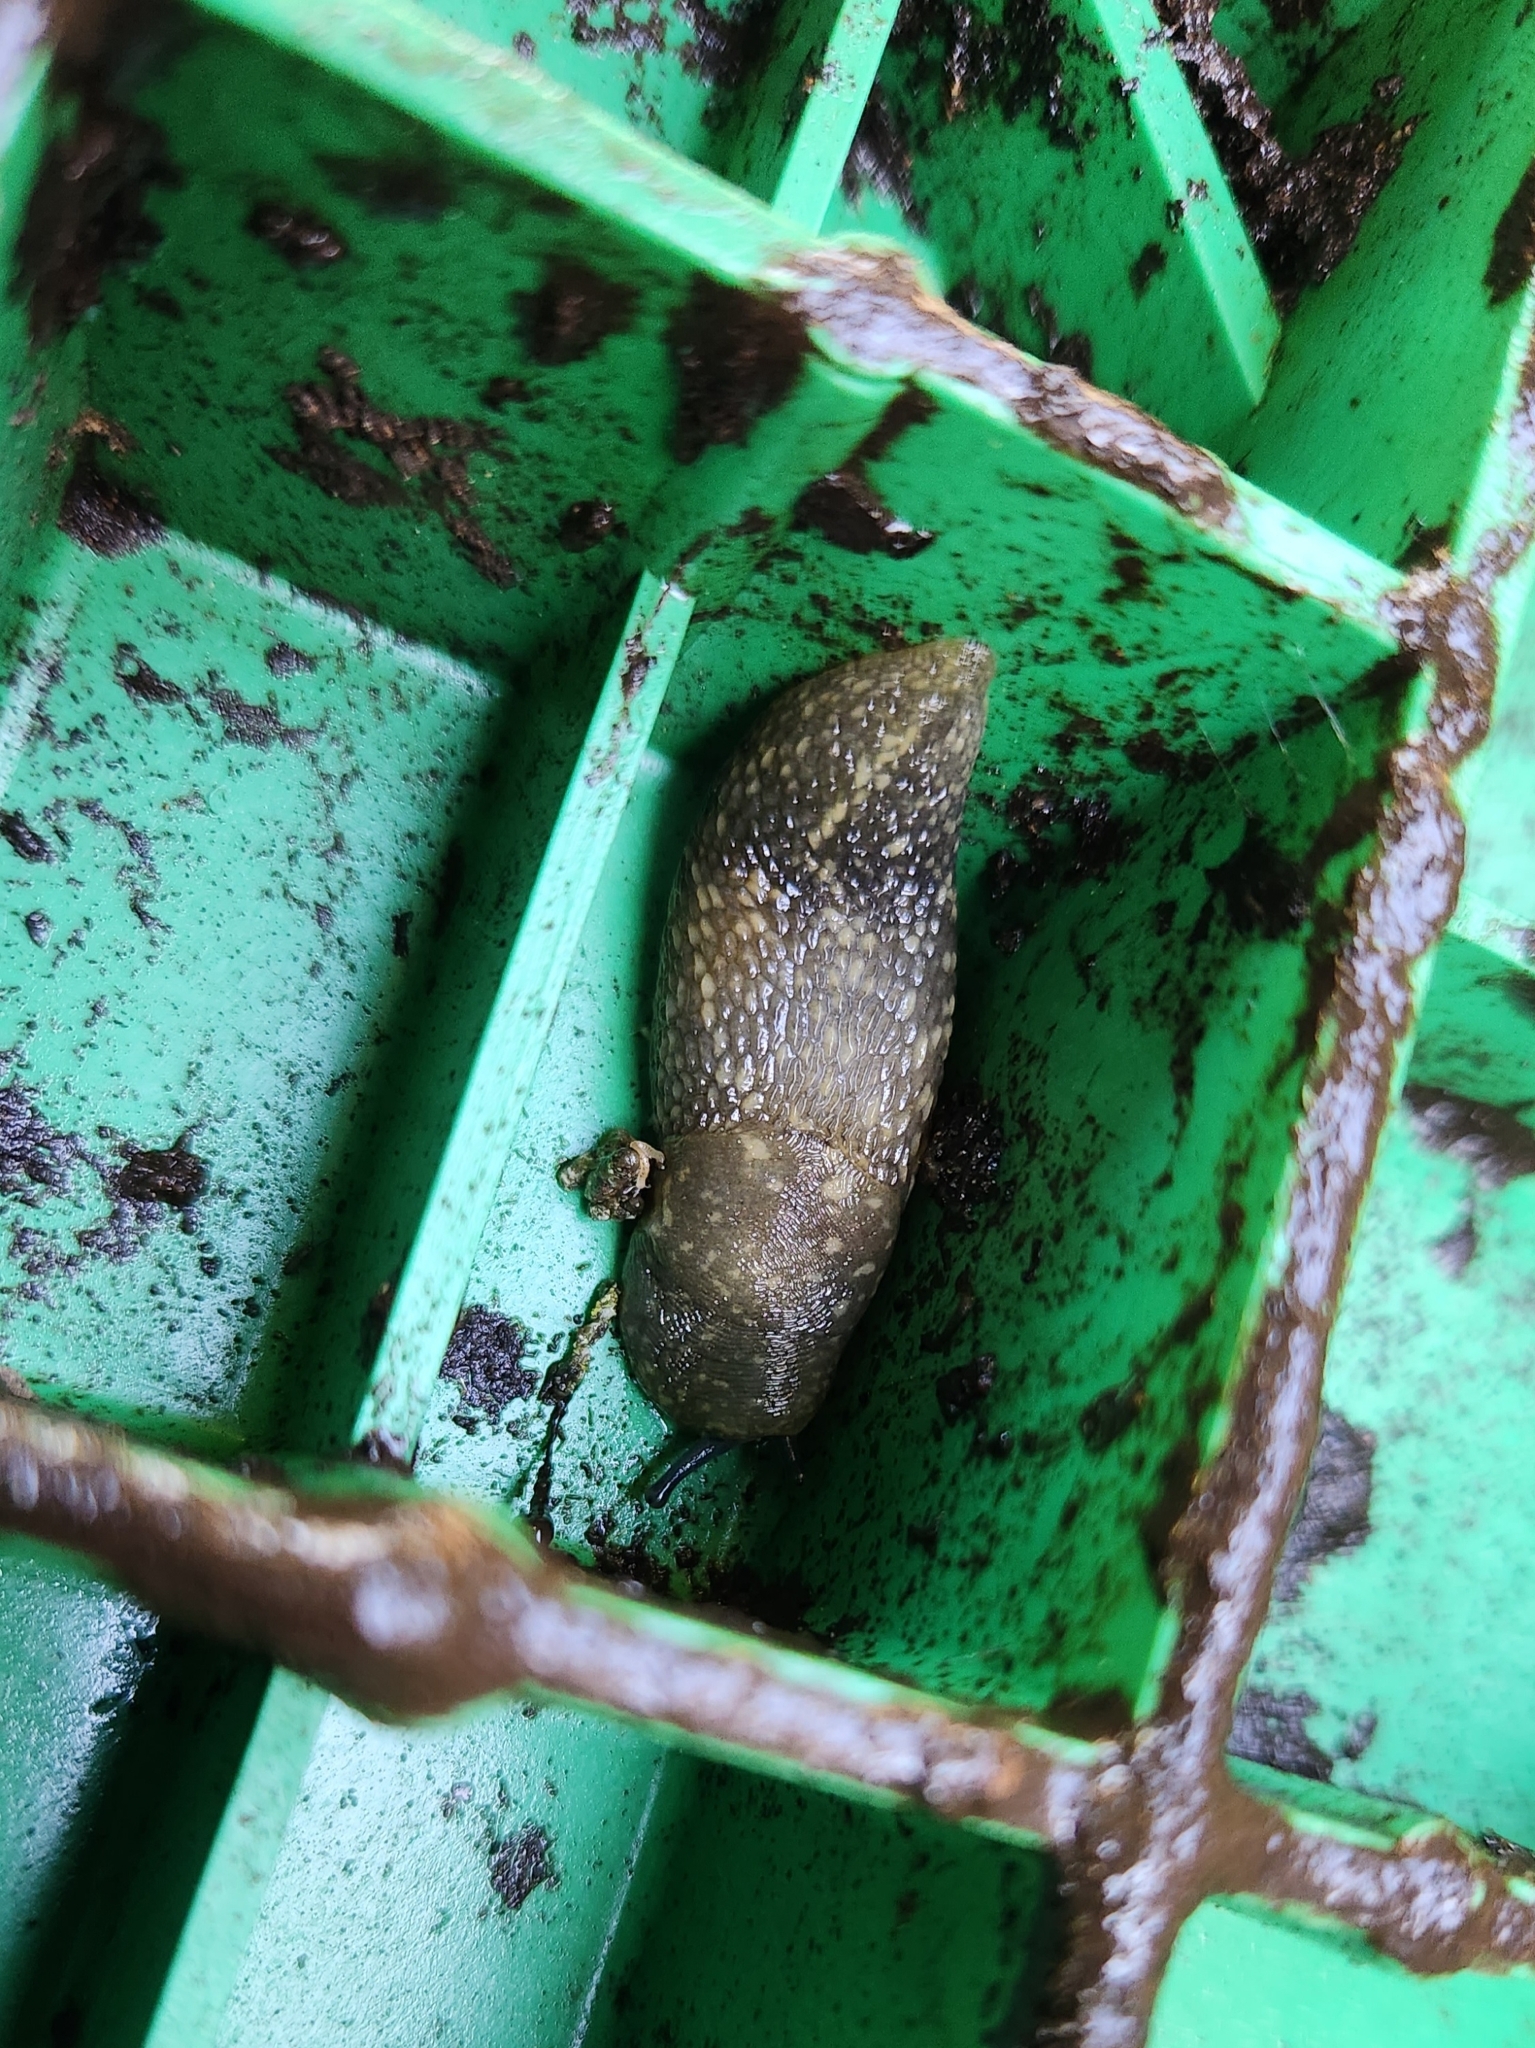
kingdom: Animalia
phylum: Mollusca
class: Gastropoda
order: Stylommatophora
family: Limacidae
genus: Limacus
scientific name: Limacus flavus
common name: Yellow gardenslug
